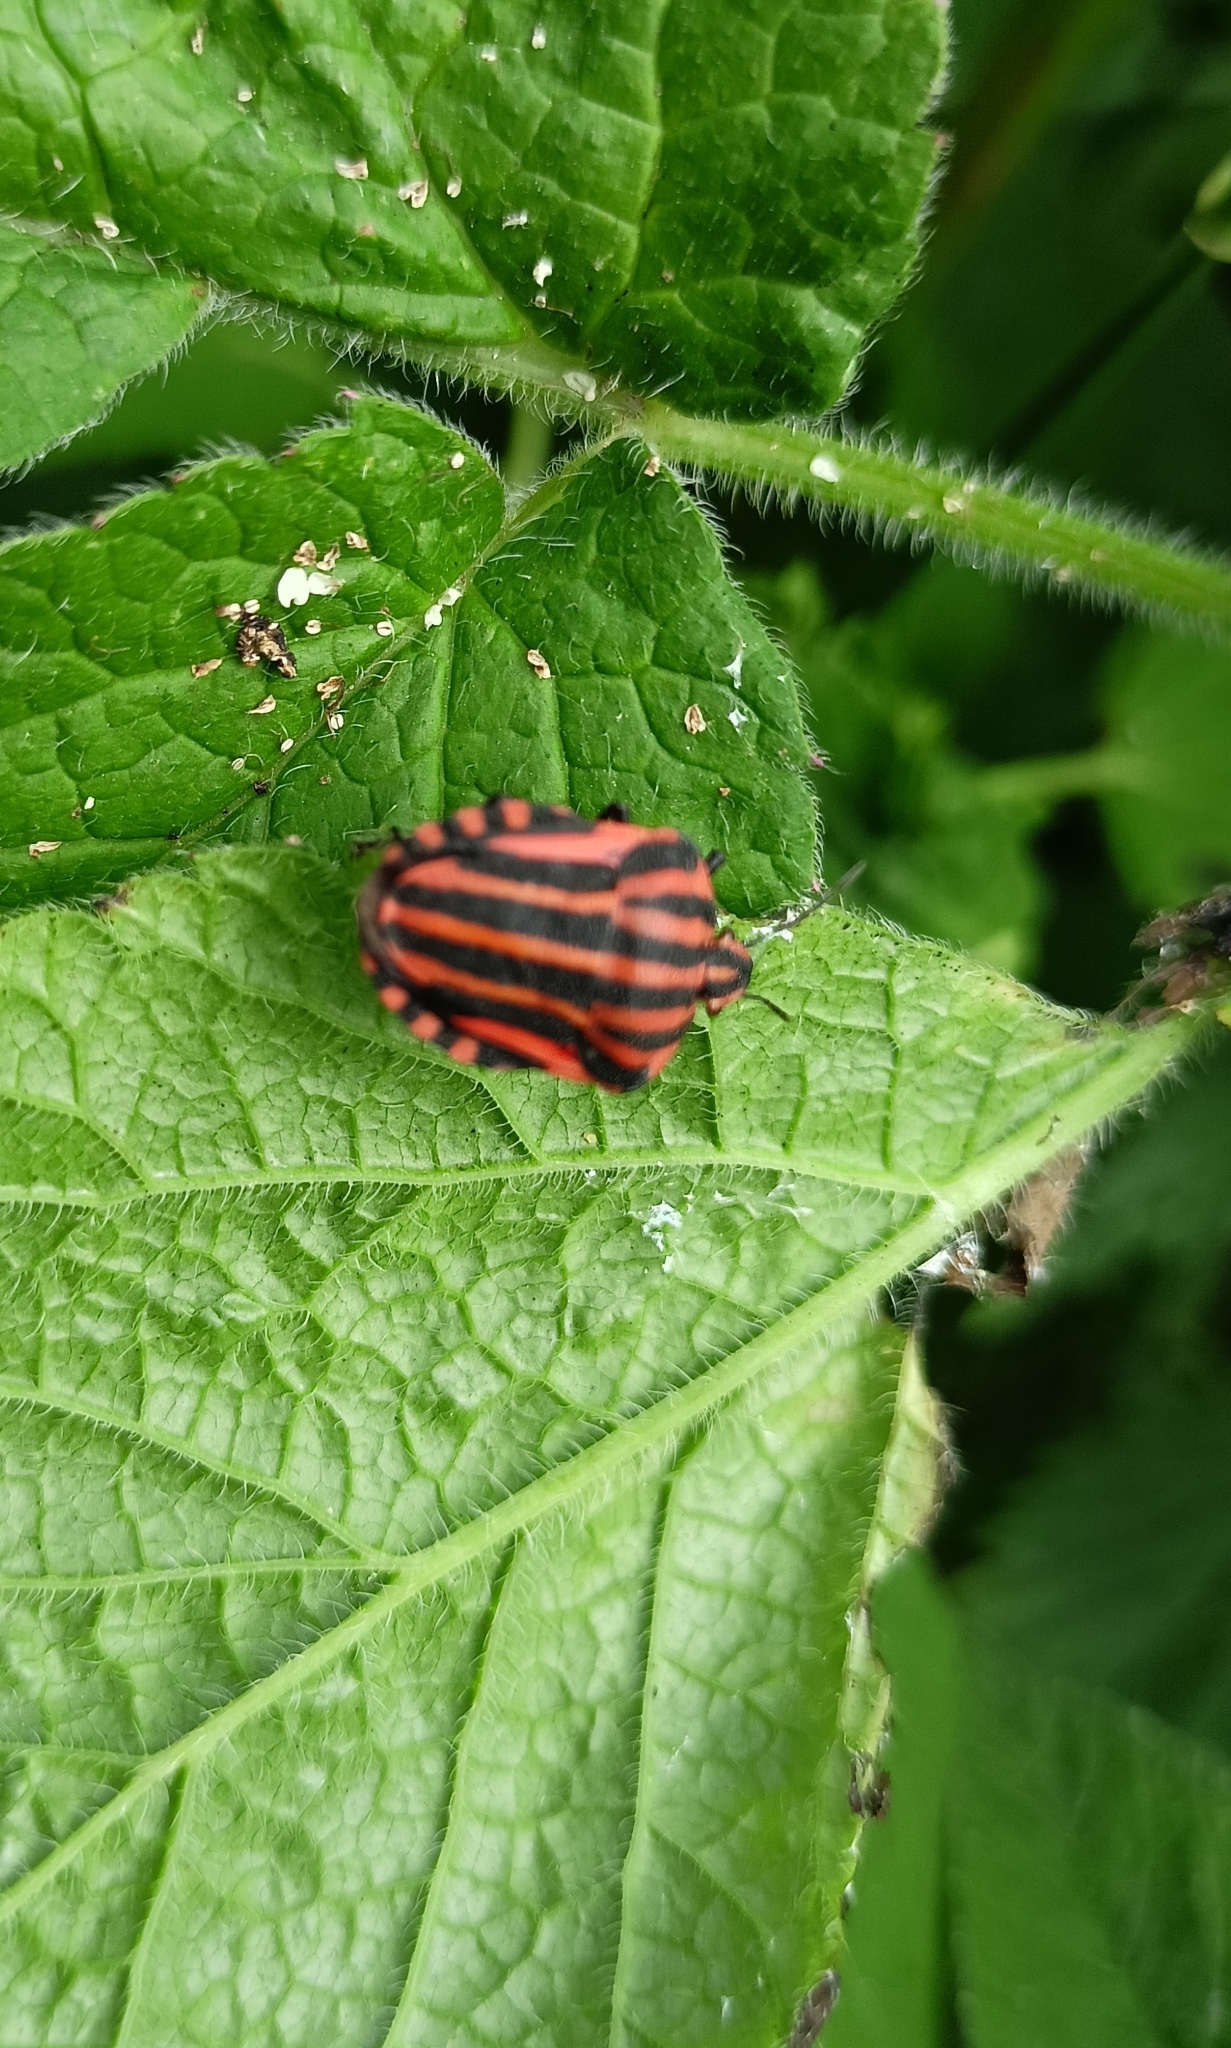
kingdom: Animalia
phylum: Arthropoda
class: Insecta
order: Hemiptera
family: Pentatomidae
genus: Graphosoma
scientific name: Graphosoma italicum
